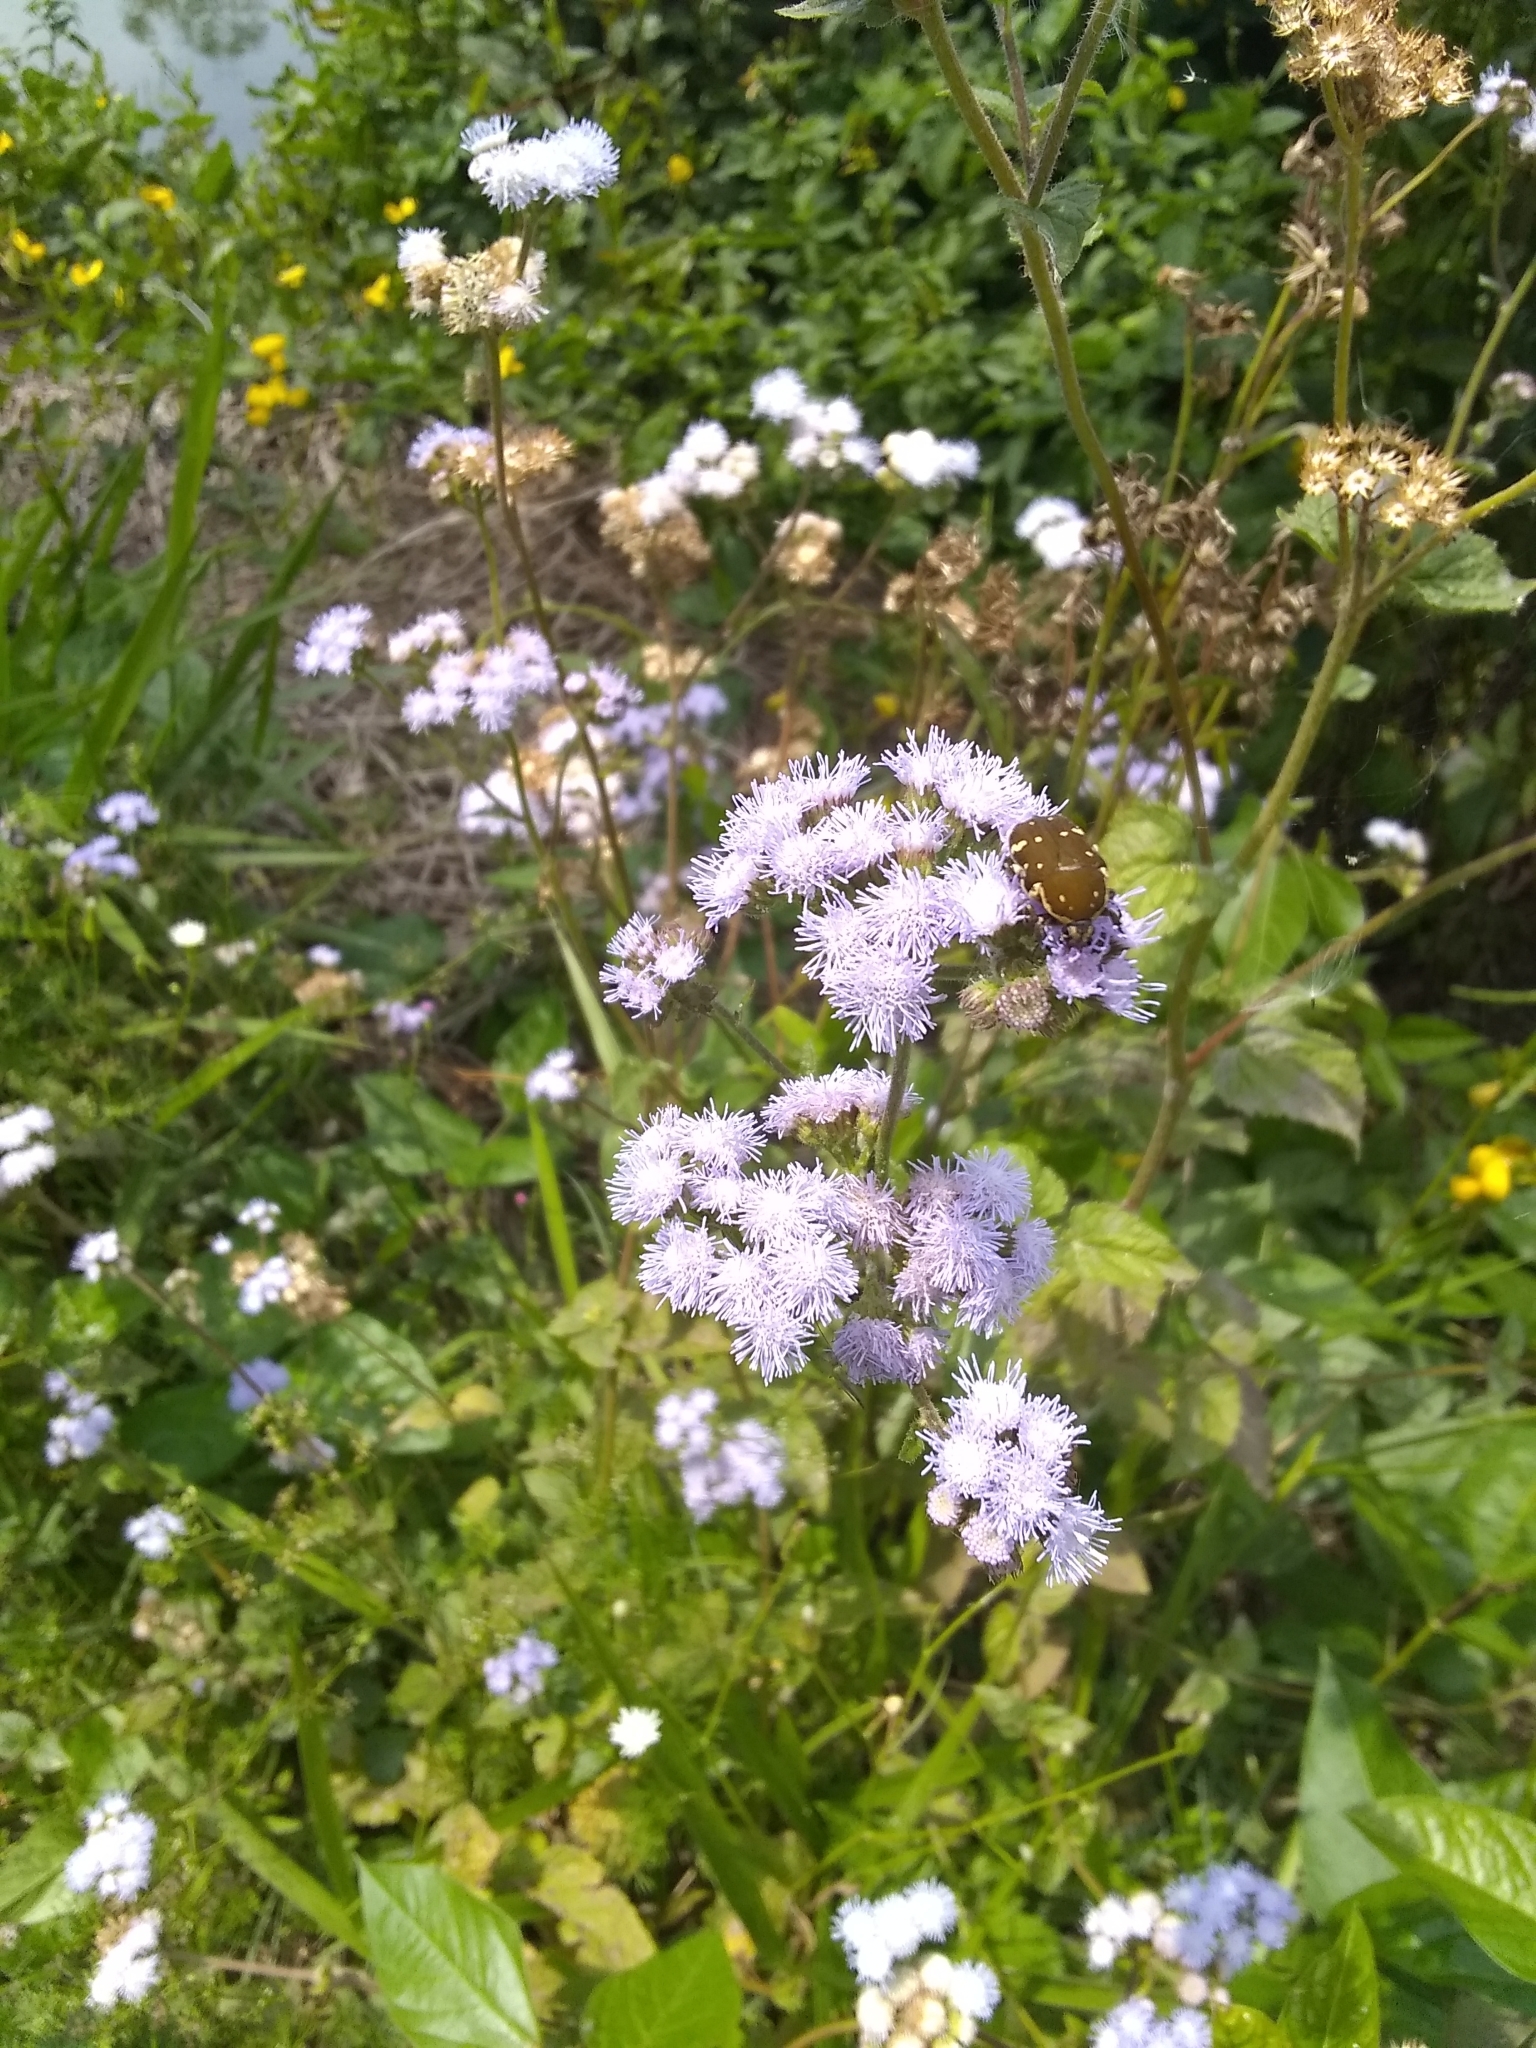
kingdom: Plantae
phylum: Tracheophyta
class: Magnoliopsida
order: Asterales
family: Asteraceae
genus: Ageratum
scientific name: Ageratum houstonianum
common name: Bluemink
